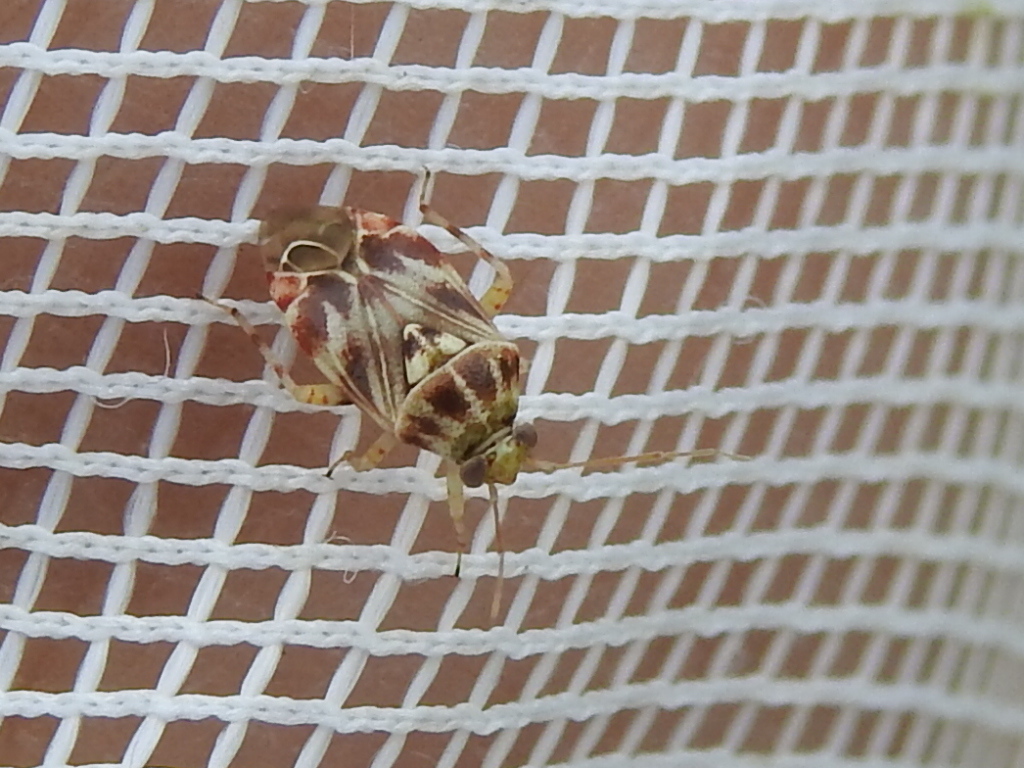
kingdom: Animalia
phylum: Arthropoda
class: Insecta
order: Hemiptera
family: Miridae
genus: Tropidosteptes
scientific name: Tropidosteptes quercicola
